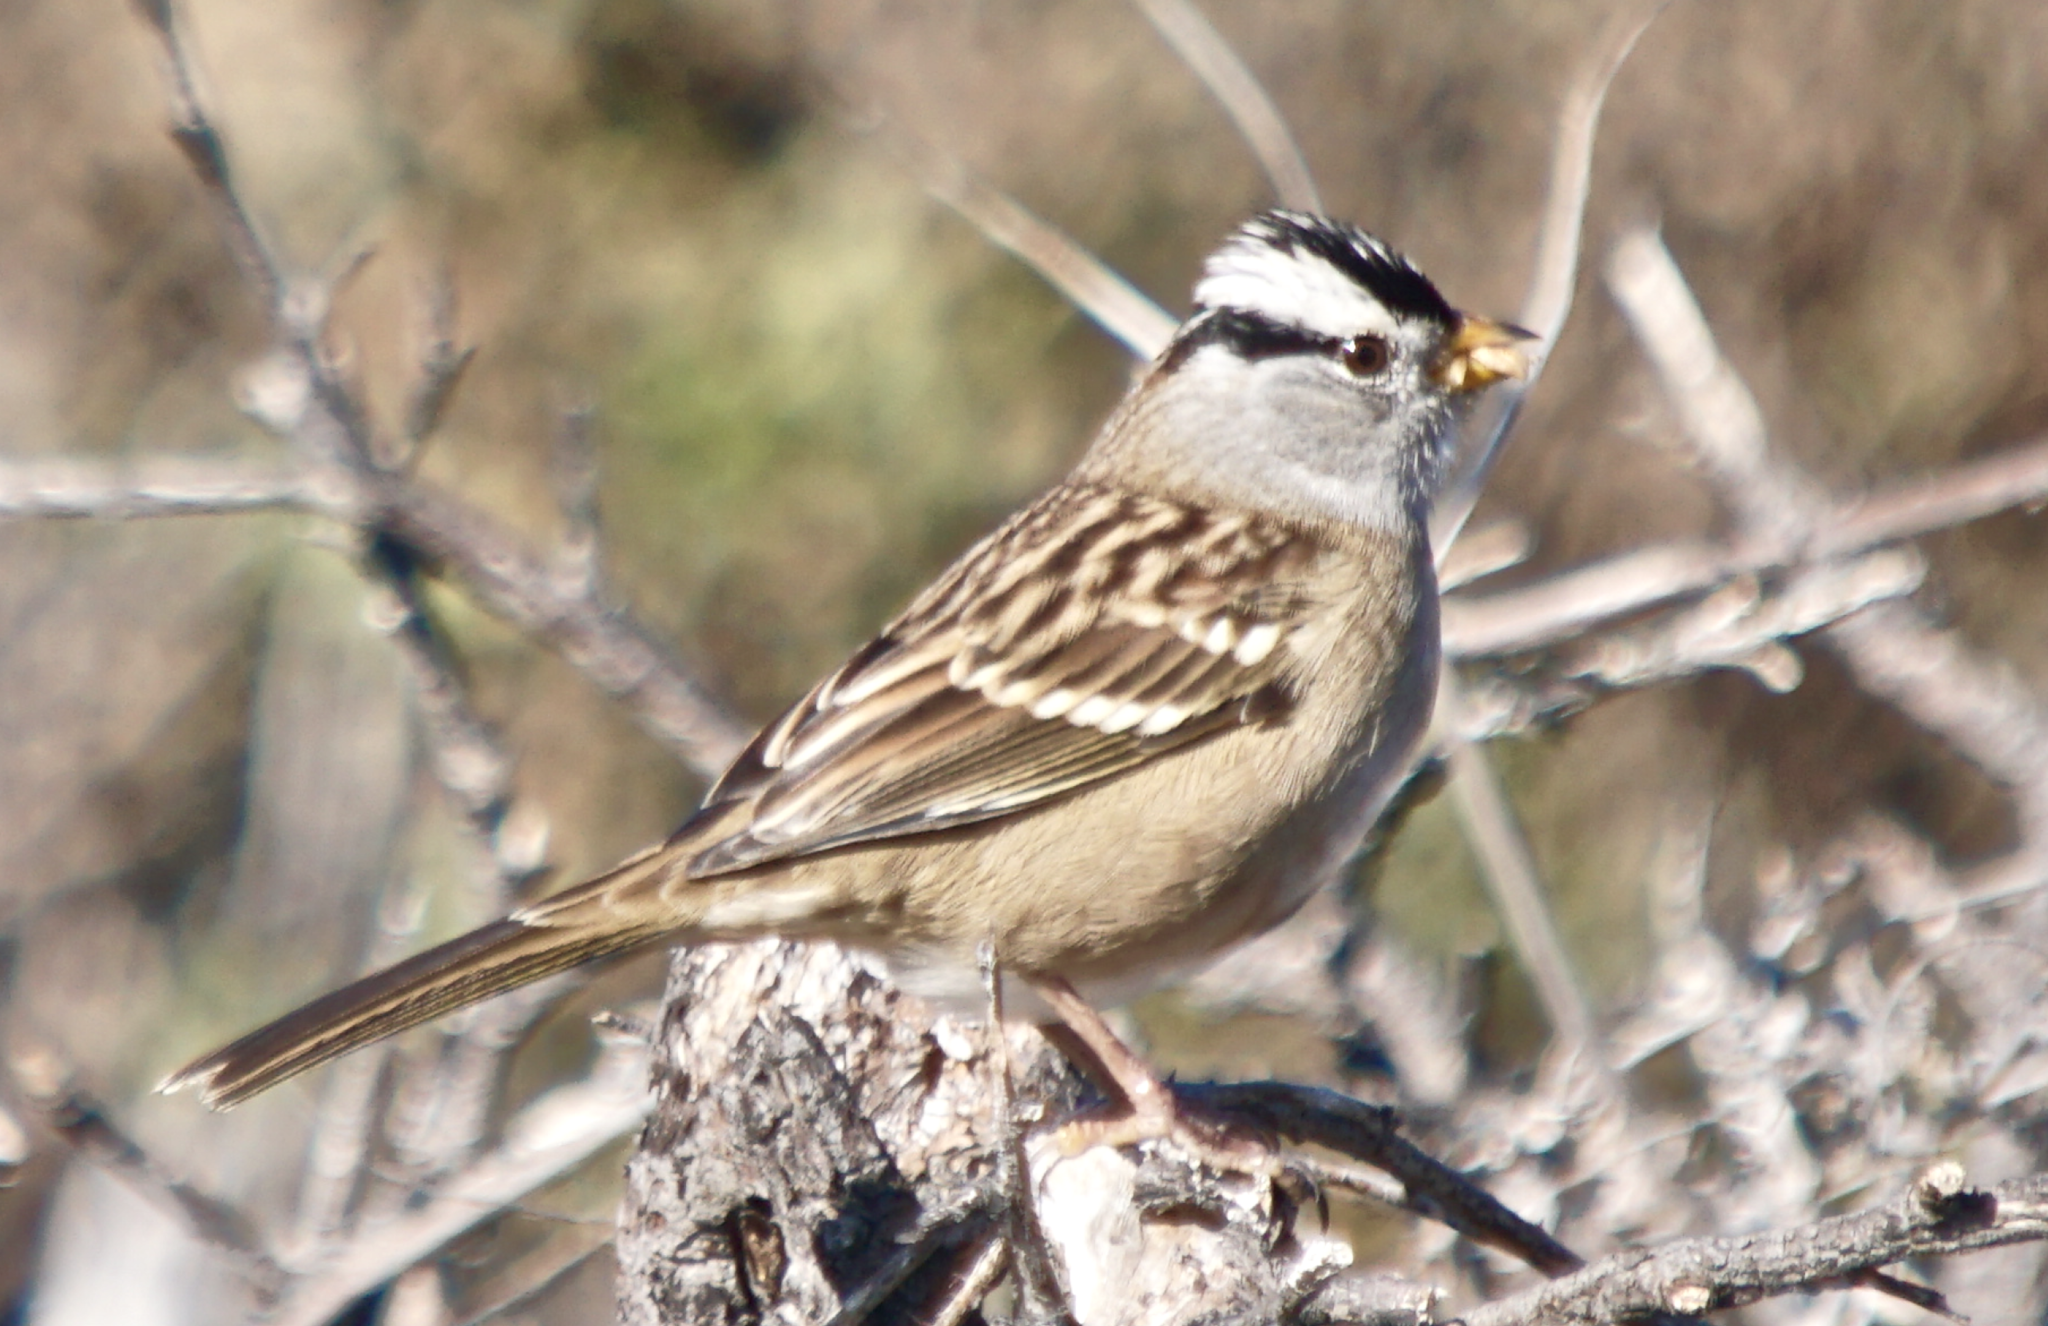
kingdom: Animalia
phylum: Chordata
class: Aves
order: Passeriformes
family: Passerellidae
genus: Zonotrichia
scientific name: Zonotrichia leucophrys
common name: White-crowned sparrow
